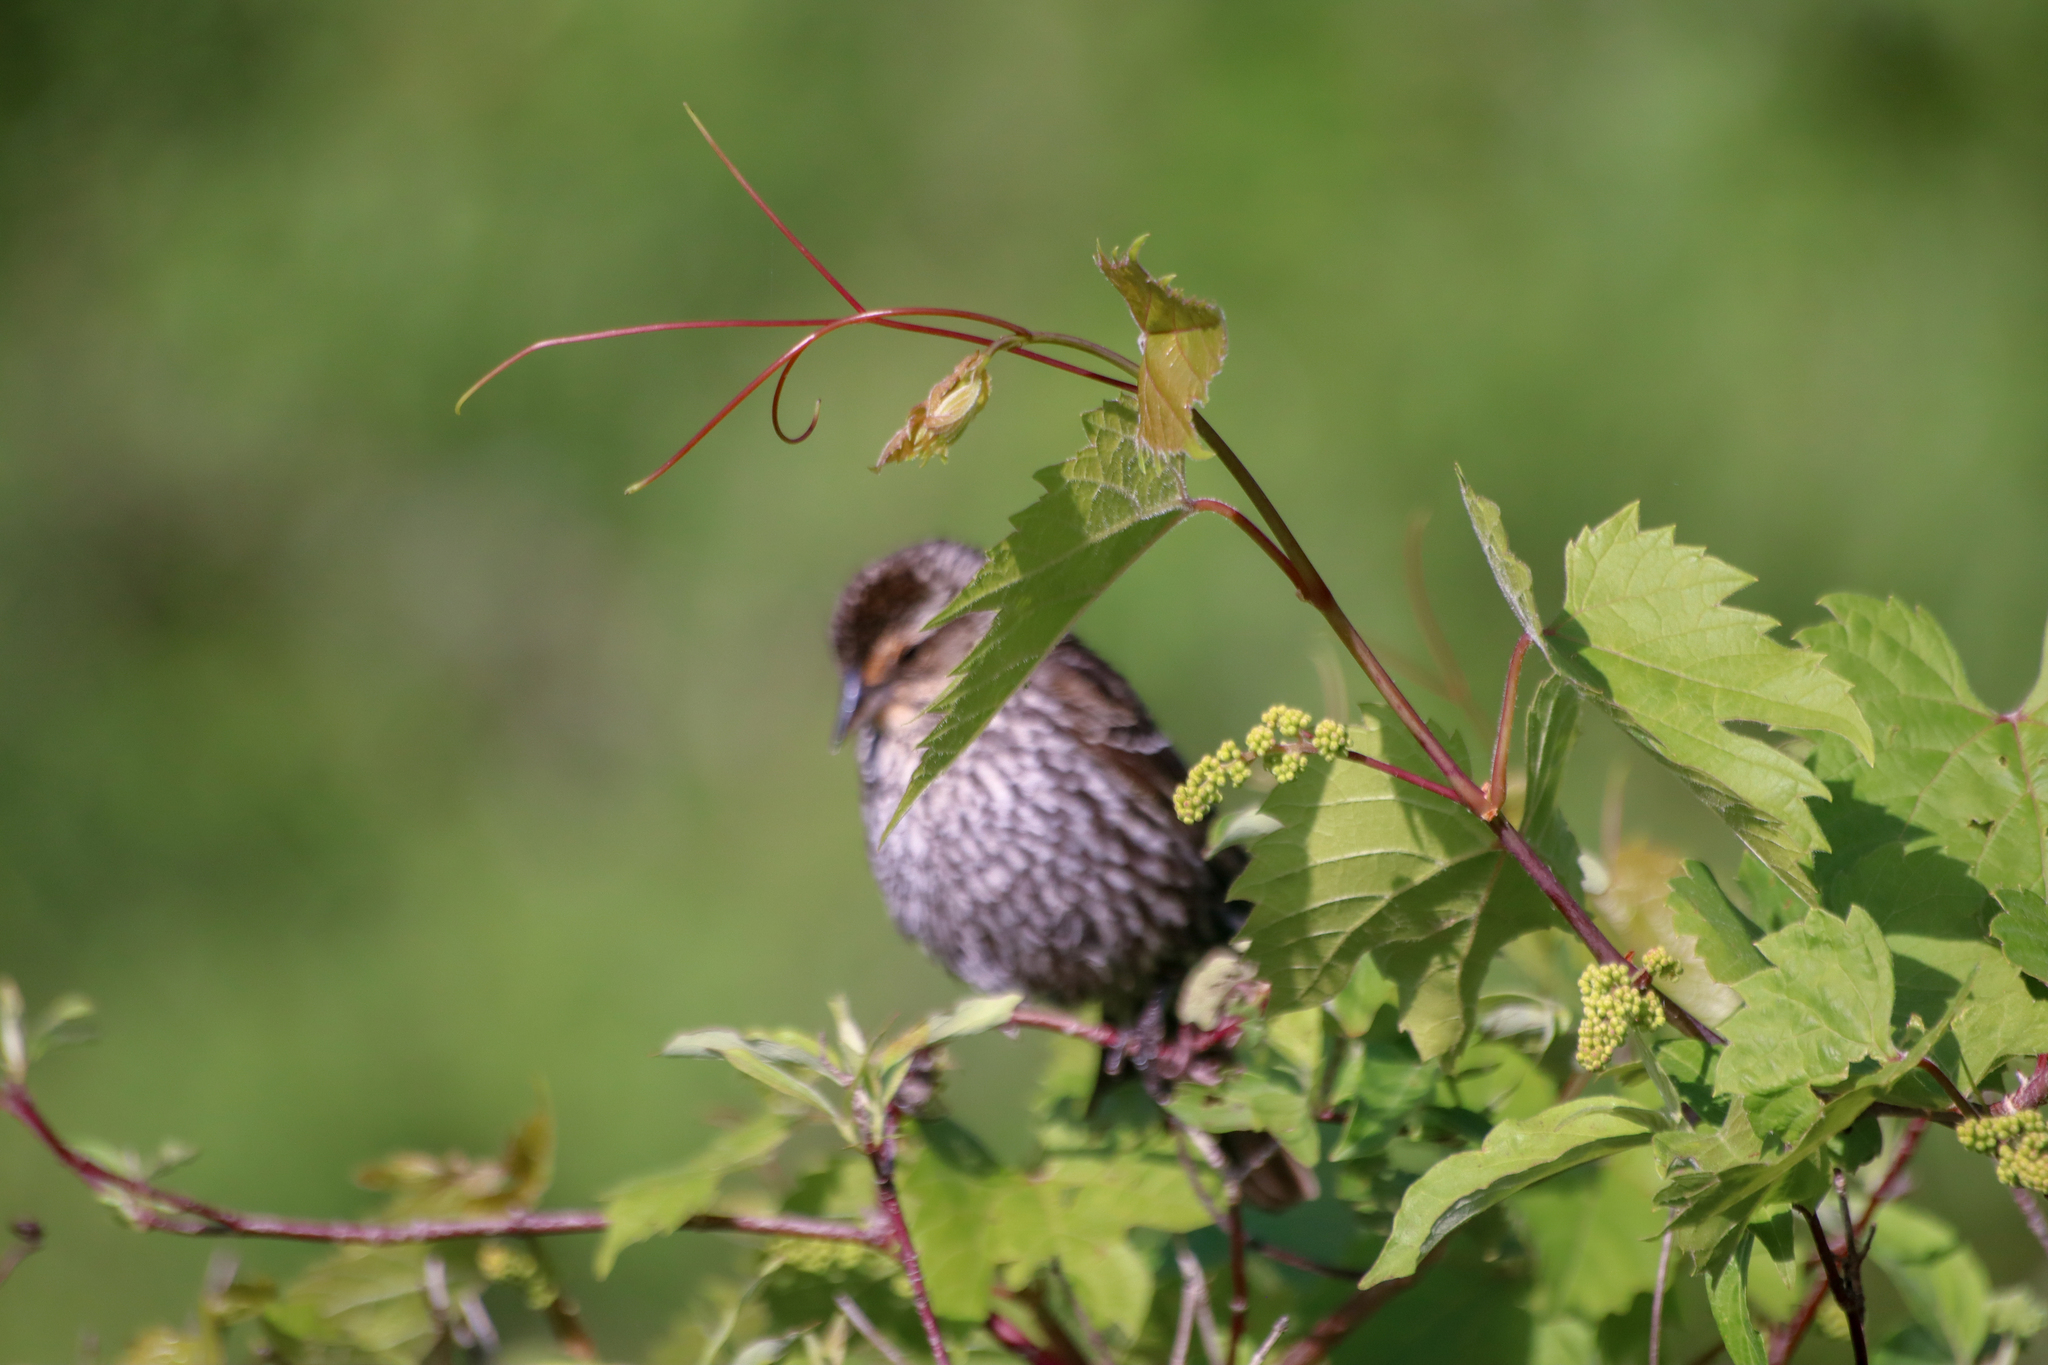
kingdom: Animalia
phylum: Chordata
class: Aves
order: Passeriformes
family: Icteridae
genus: Agelaius
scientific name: Agelaius phoeniceus
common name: Red-winged blackbird
